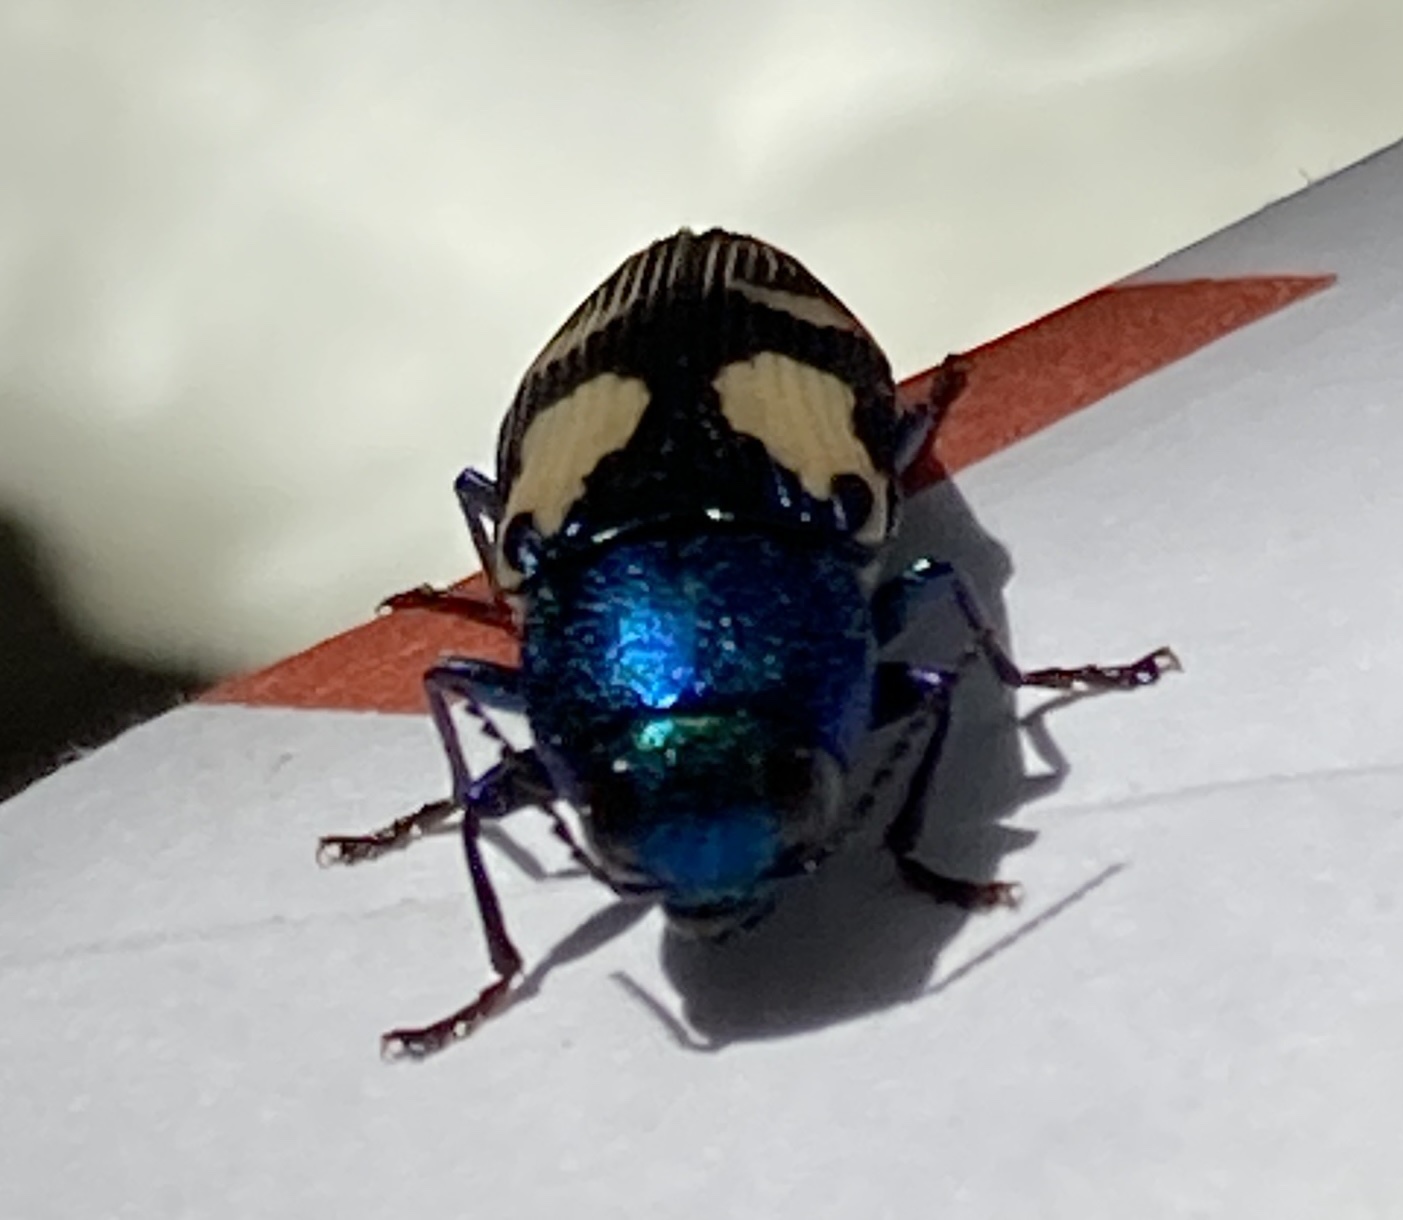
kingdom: Animalia
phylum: Arthropoda
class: Insecta
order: Coleoptera
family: Buprestidae
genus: Buprestis
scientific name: Buprestis gibbsii
